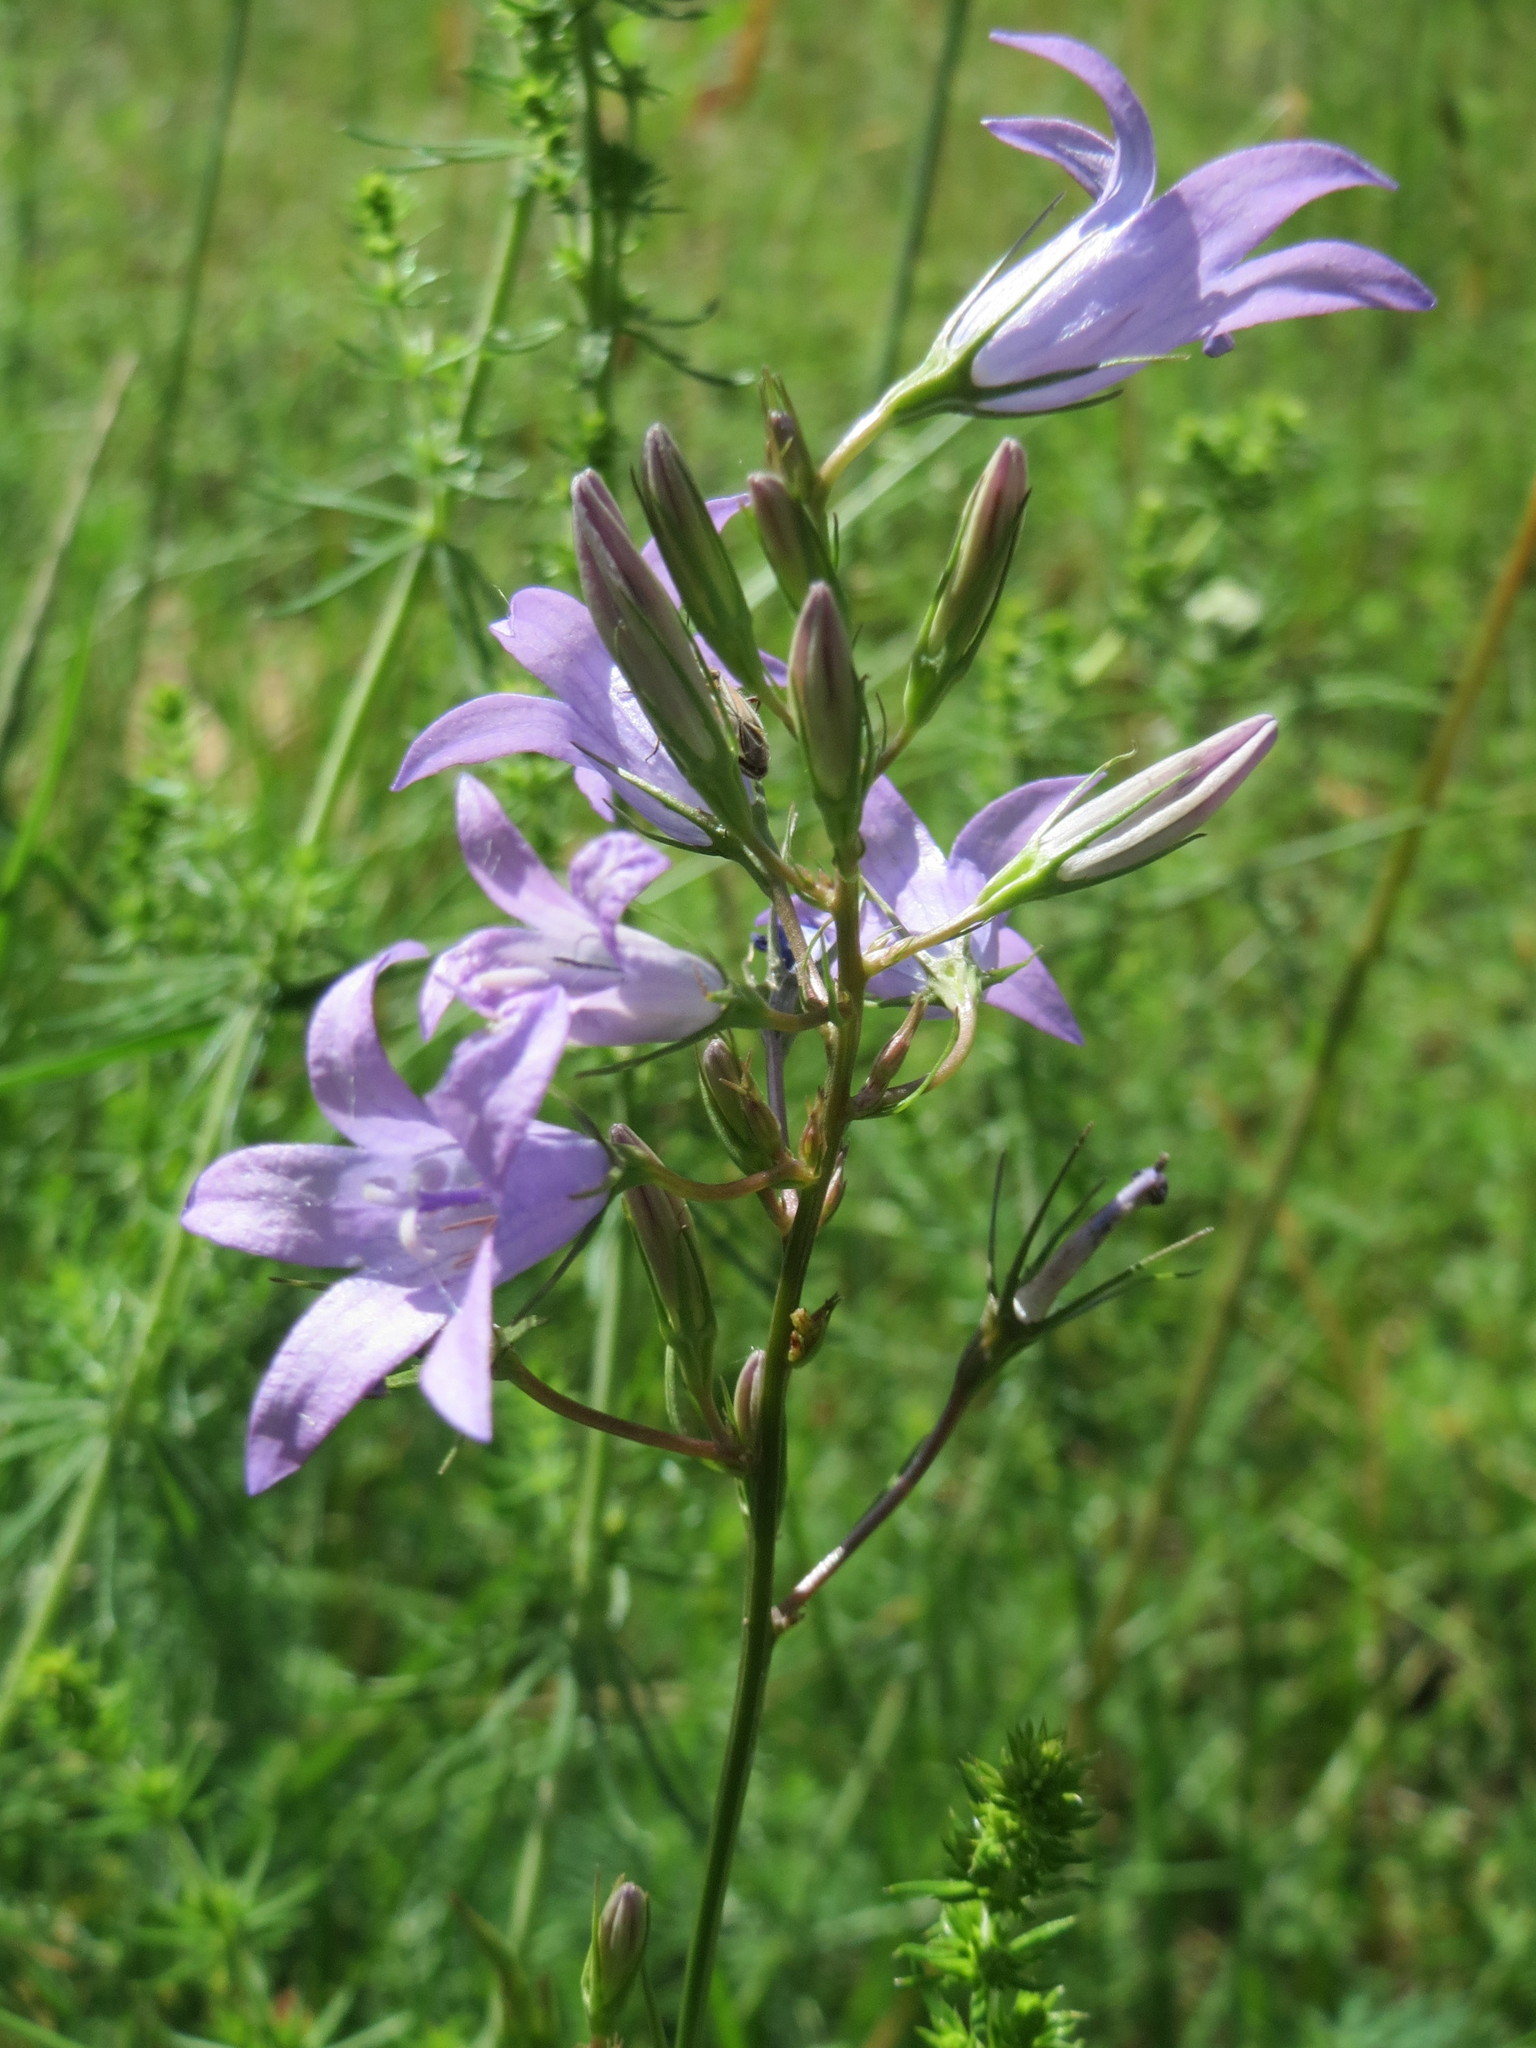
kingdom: Plantae
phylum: Tracheophyta
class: Magnoliopsida
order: Asterales
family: Campanulaceae
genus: Campanula
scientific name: Campanula rapunculus
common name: Rampion bellflower
